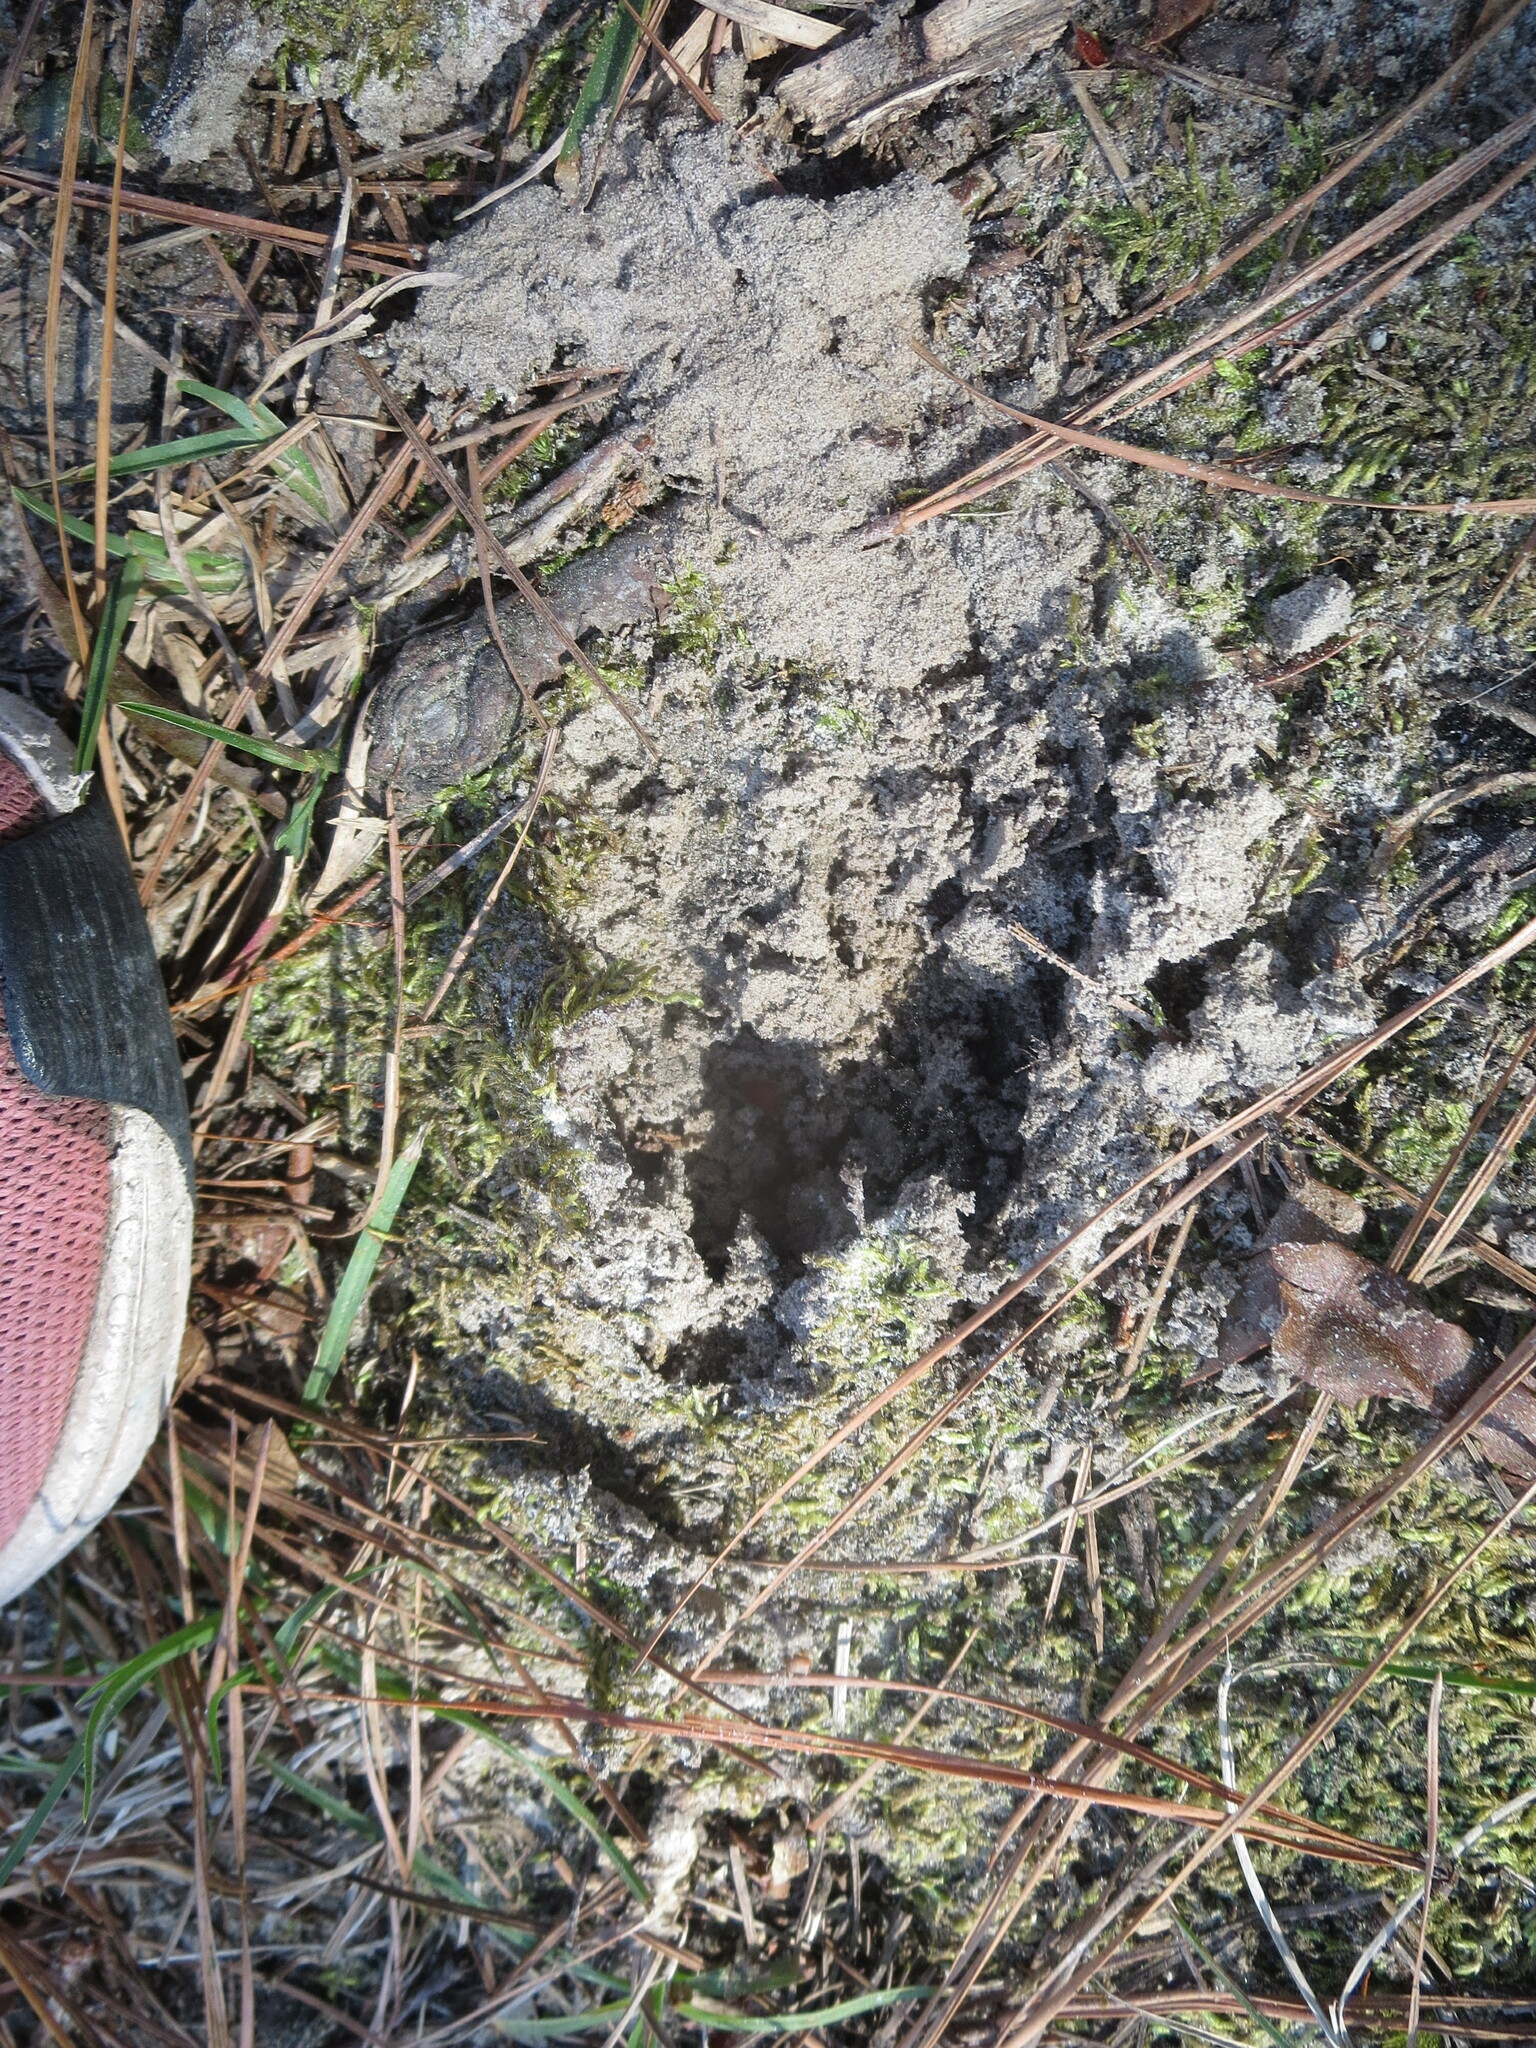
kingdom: Animalia
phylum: Chordata
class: Mammalia
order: Artiodactyla
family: Cervidae
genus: Odocoileus
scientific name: Odocoileus virginianus
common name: White-tailed deer
